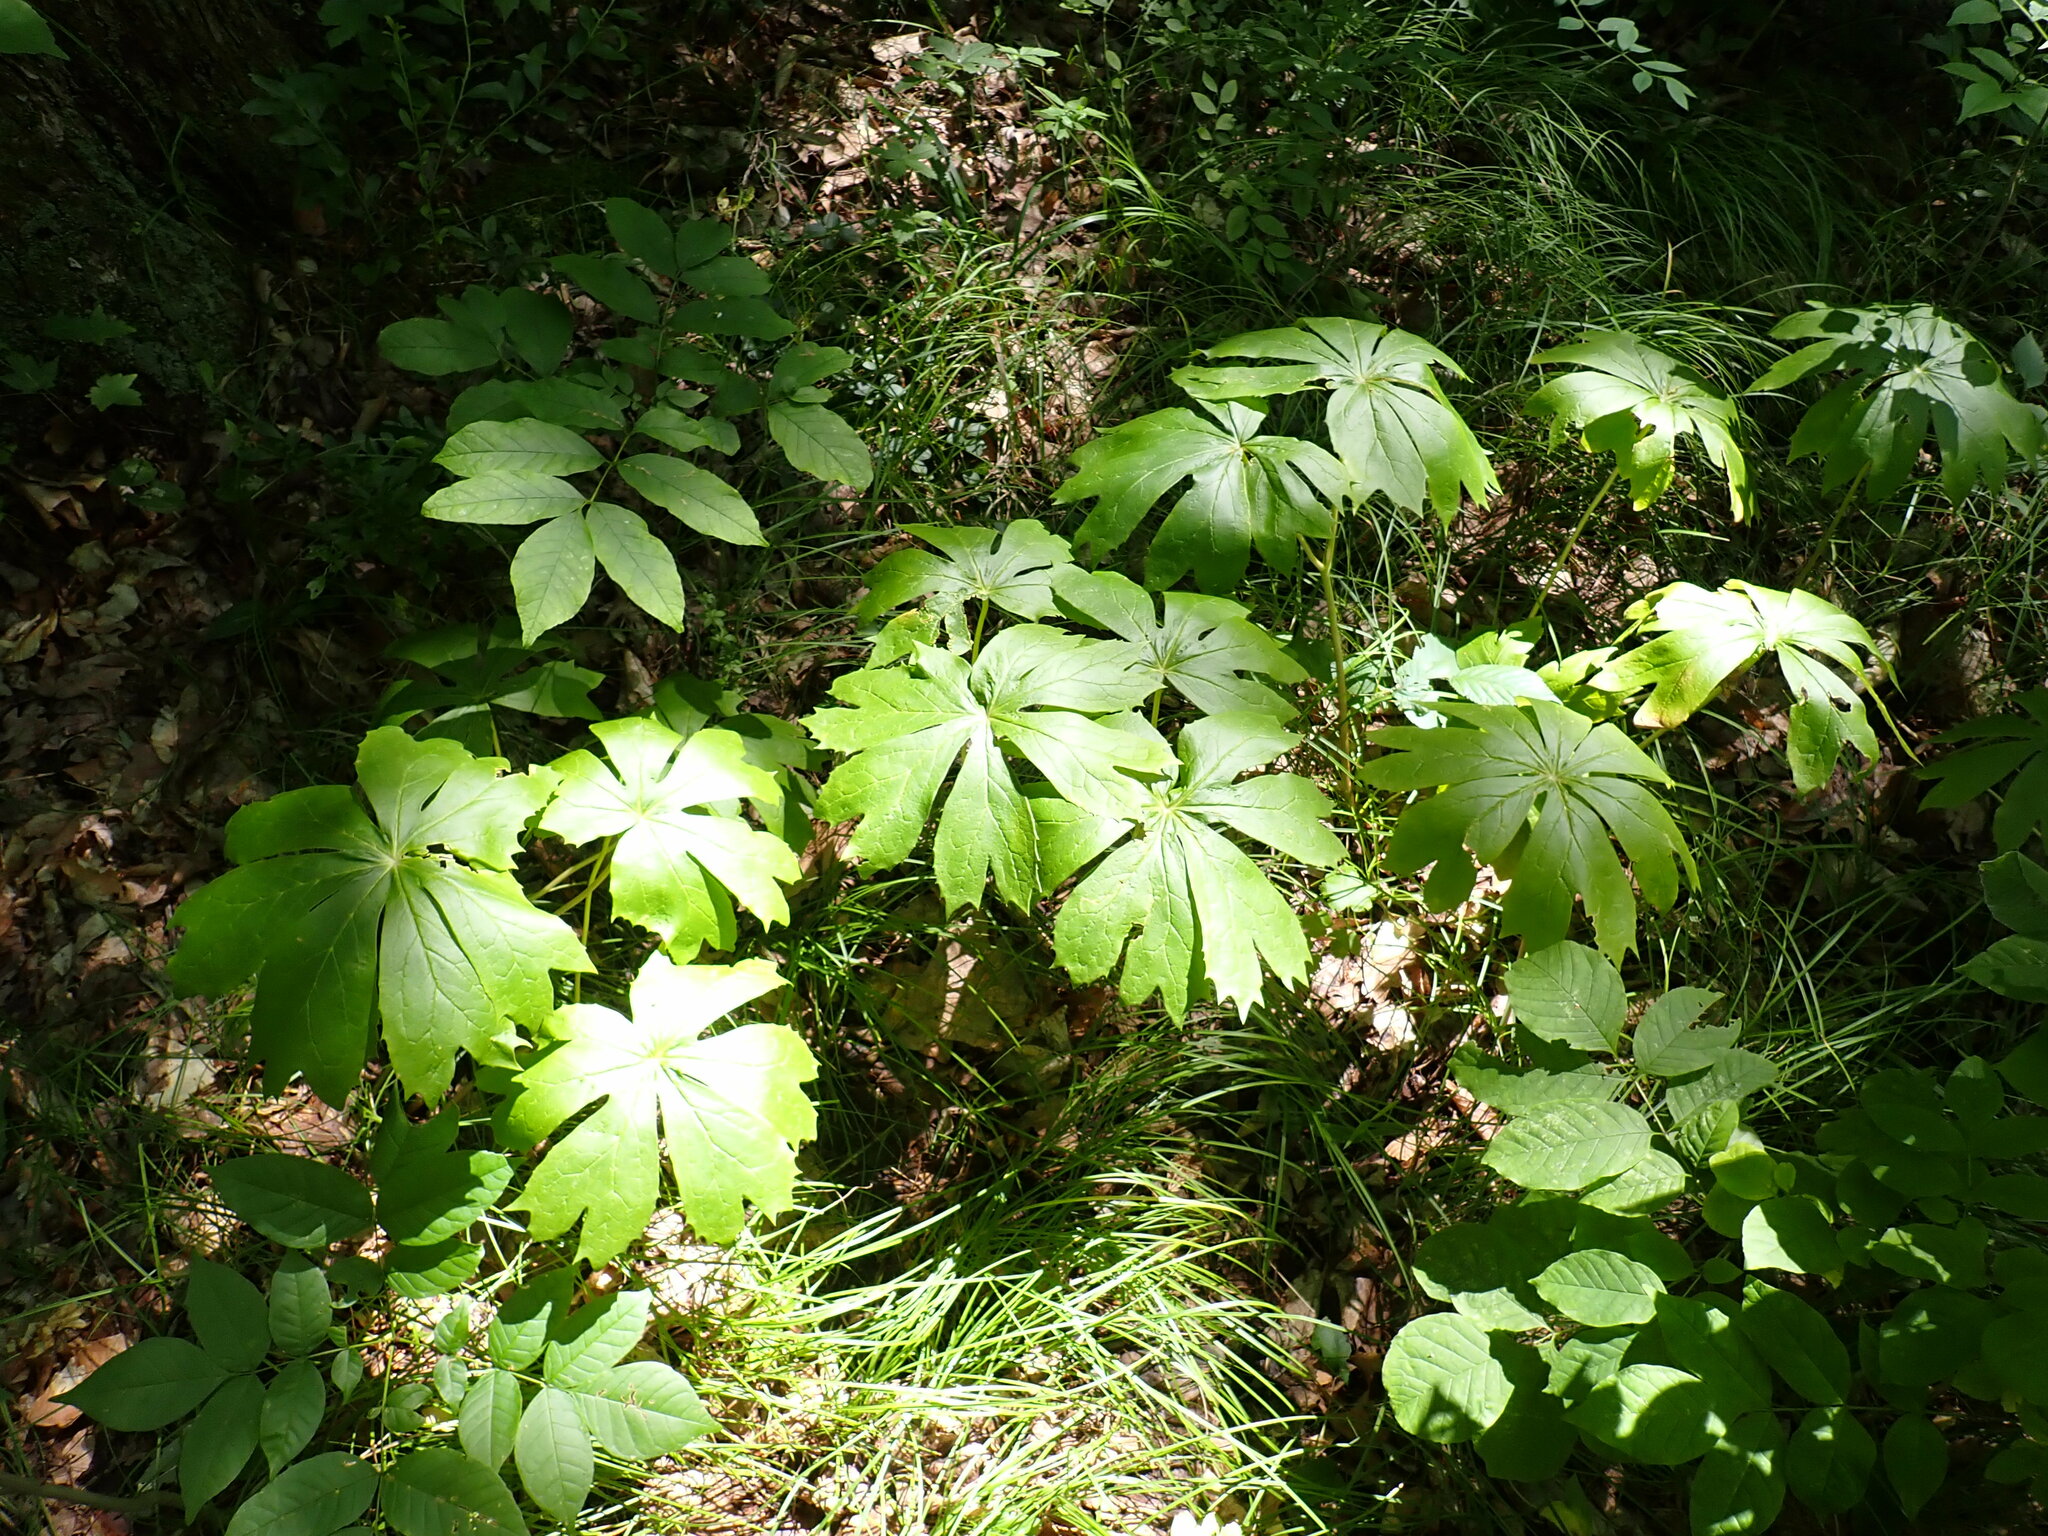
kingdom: Plantae
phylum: Tracheophyta
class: Magnoliopsida
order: Ranunculales
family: Berberidaceae
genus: Podophyllum
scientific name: Podophyllum peltatum
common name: Wild mandrake
